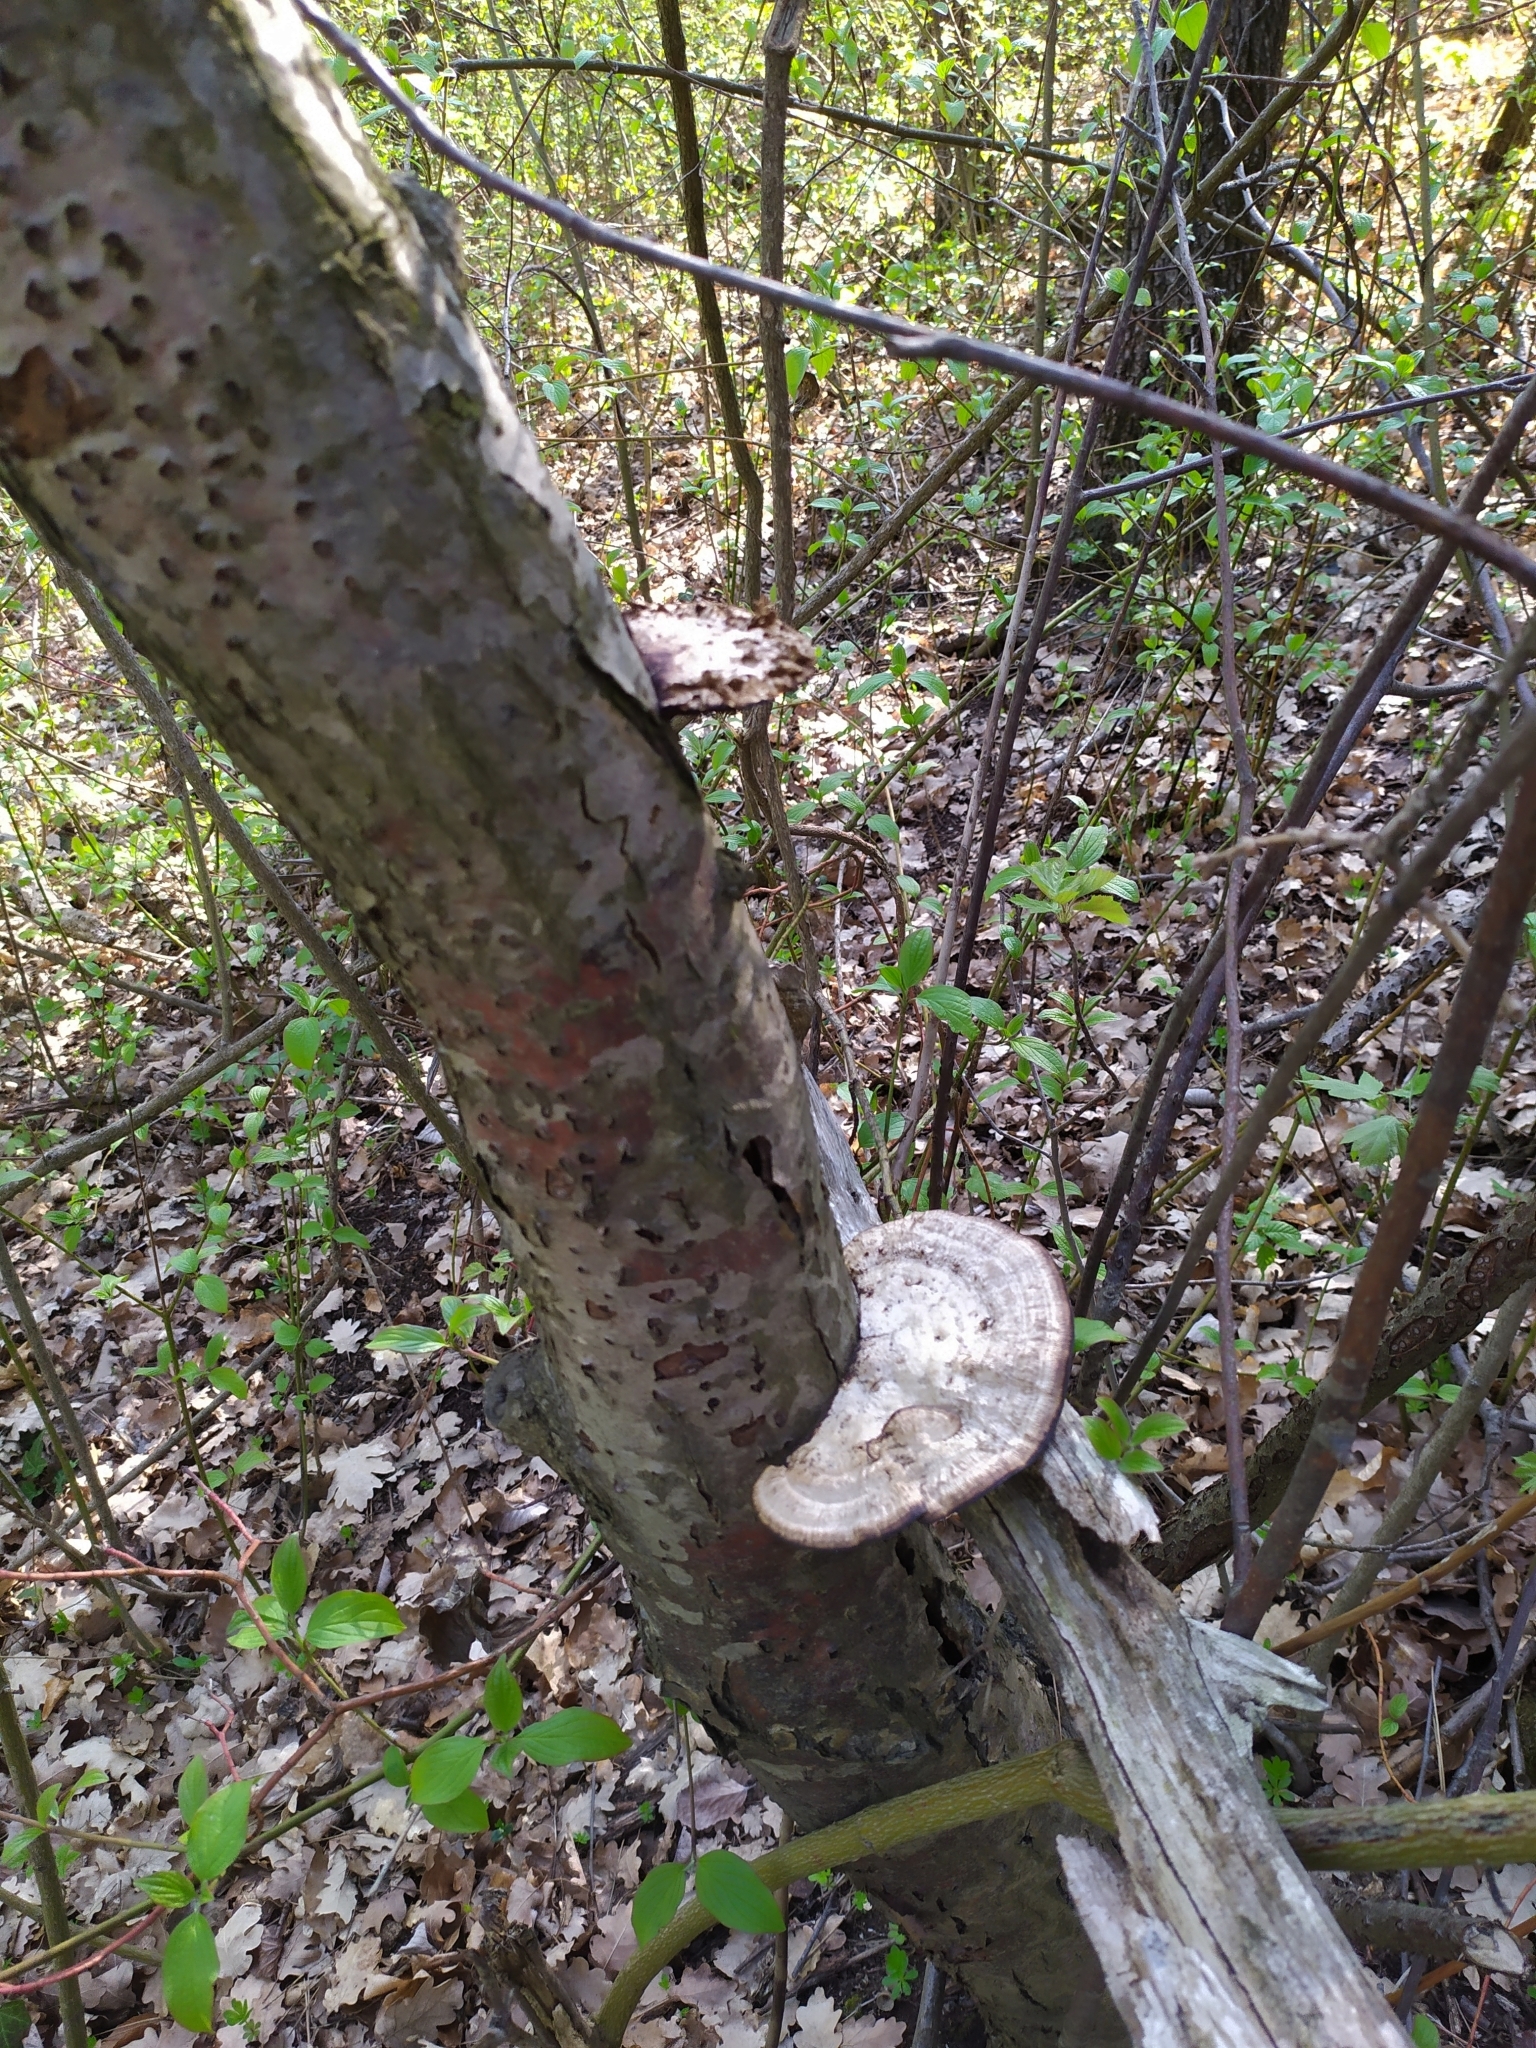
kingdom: Fungi
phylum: Basidiomycota
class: Agaricomycetes
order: Polyporales
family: Polyporaceae
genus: Daedaleopsis
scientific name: Daedaleopsis confragosa
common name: Blushing bracket
